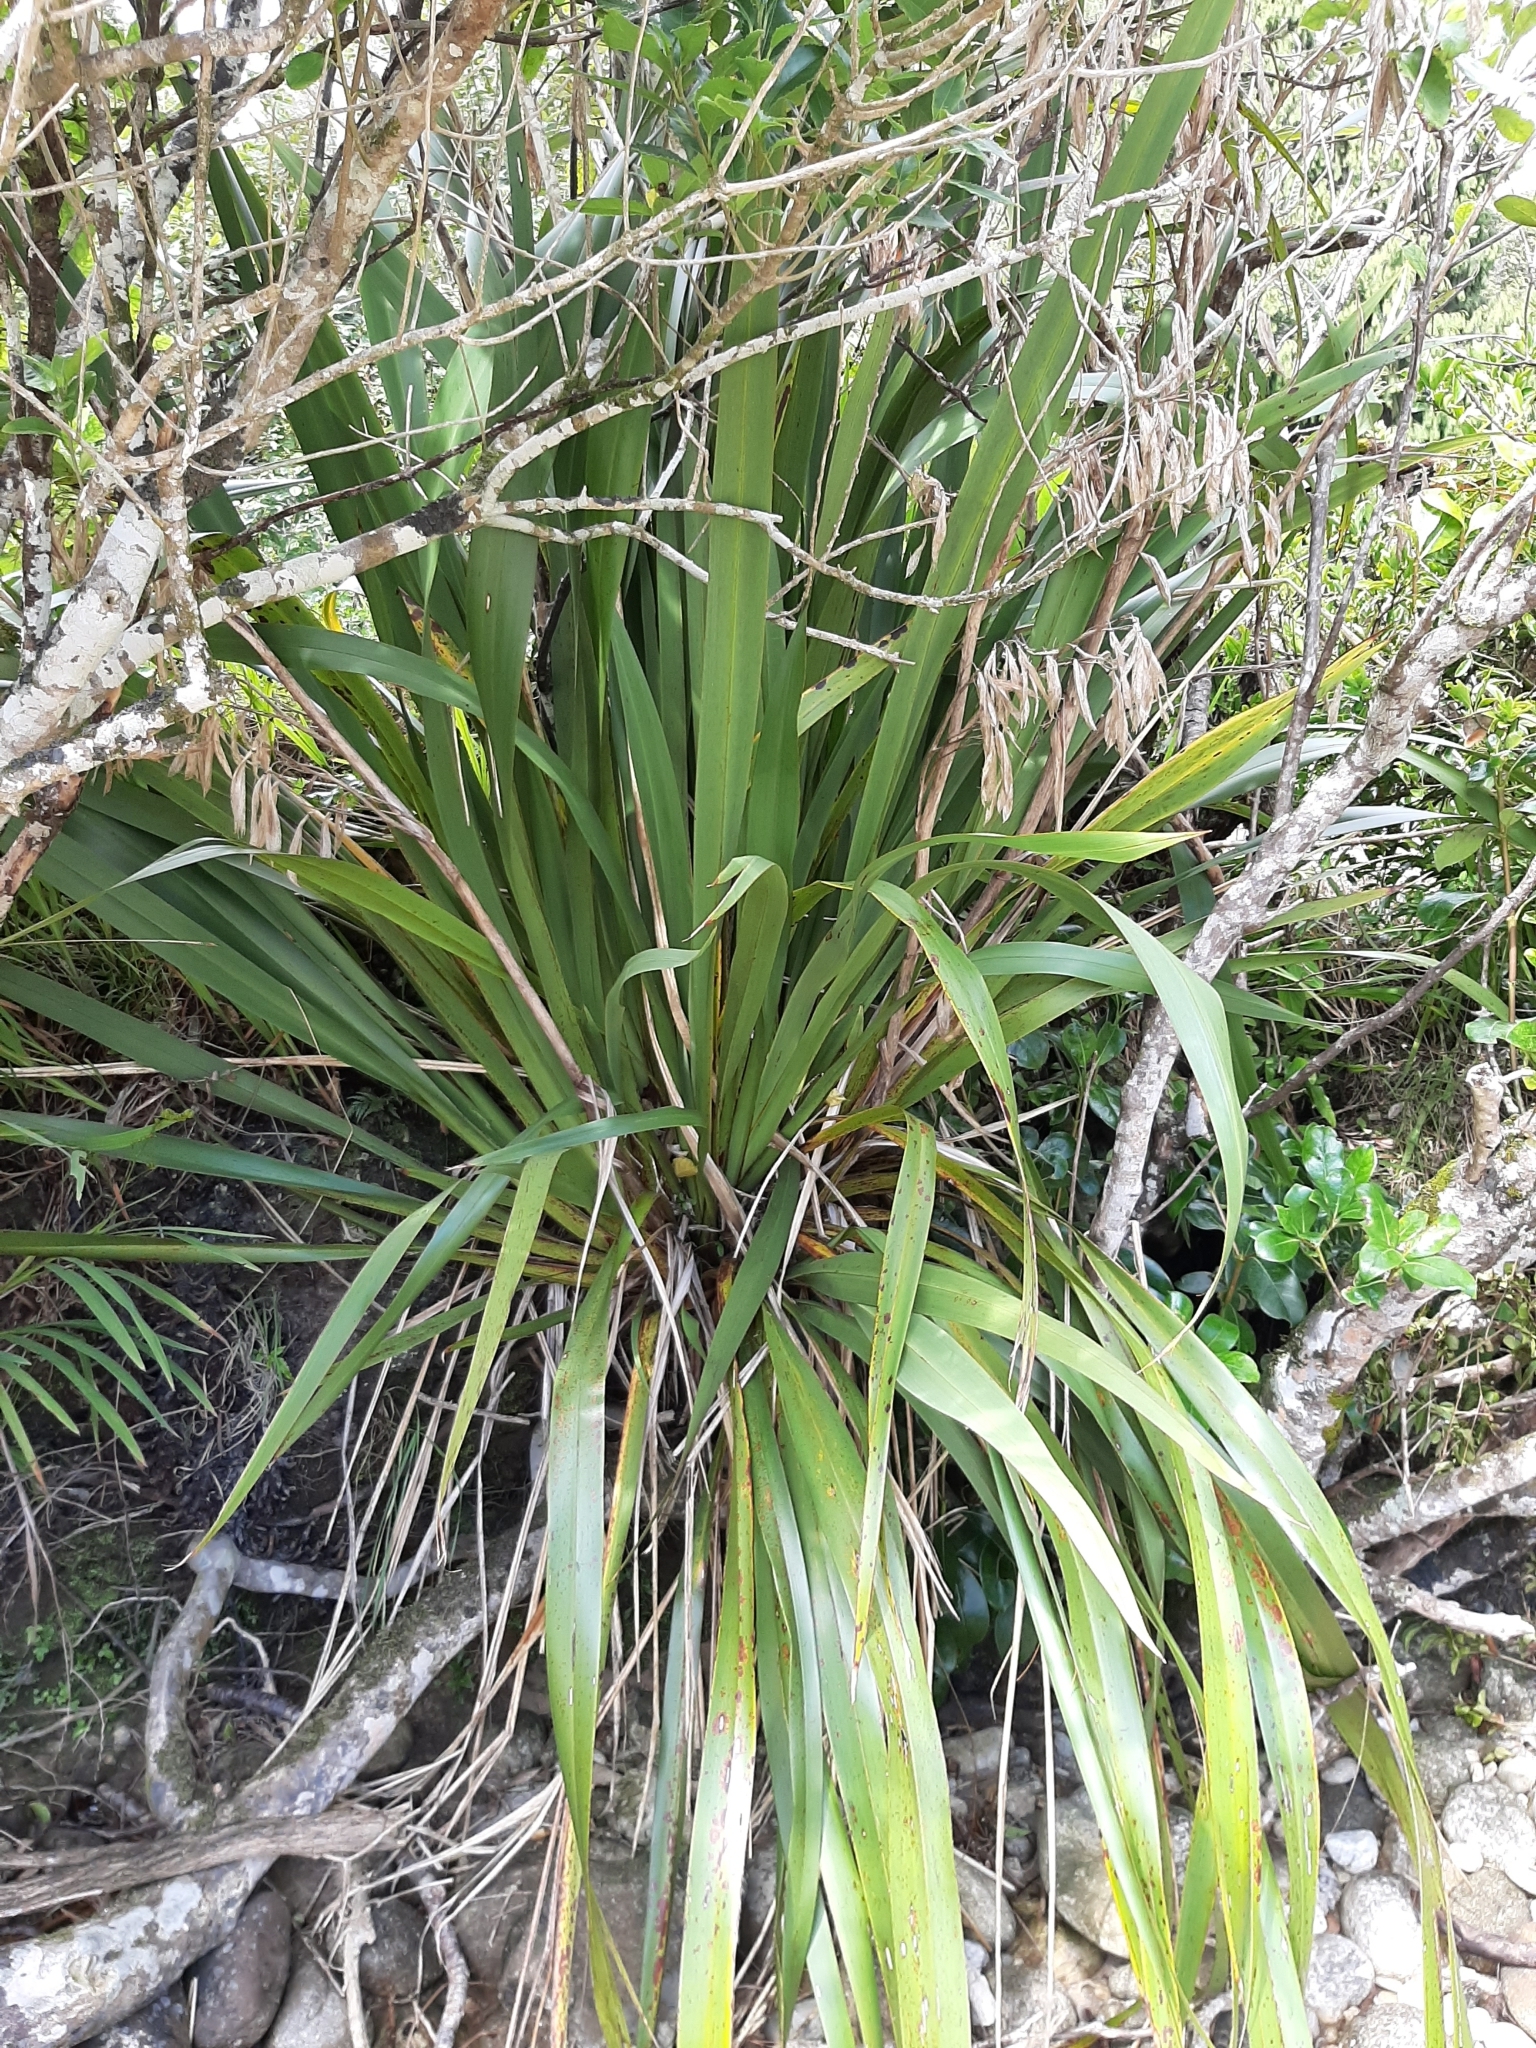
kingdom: Plantae
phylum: Tracheophyta
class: Liliopsida
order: Asparagales
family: Asphodelaceae
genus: Phormium
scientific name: Phormium colensoi
